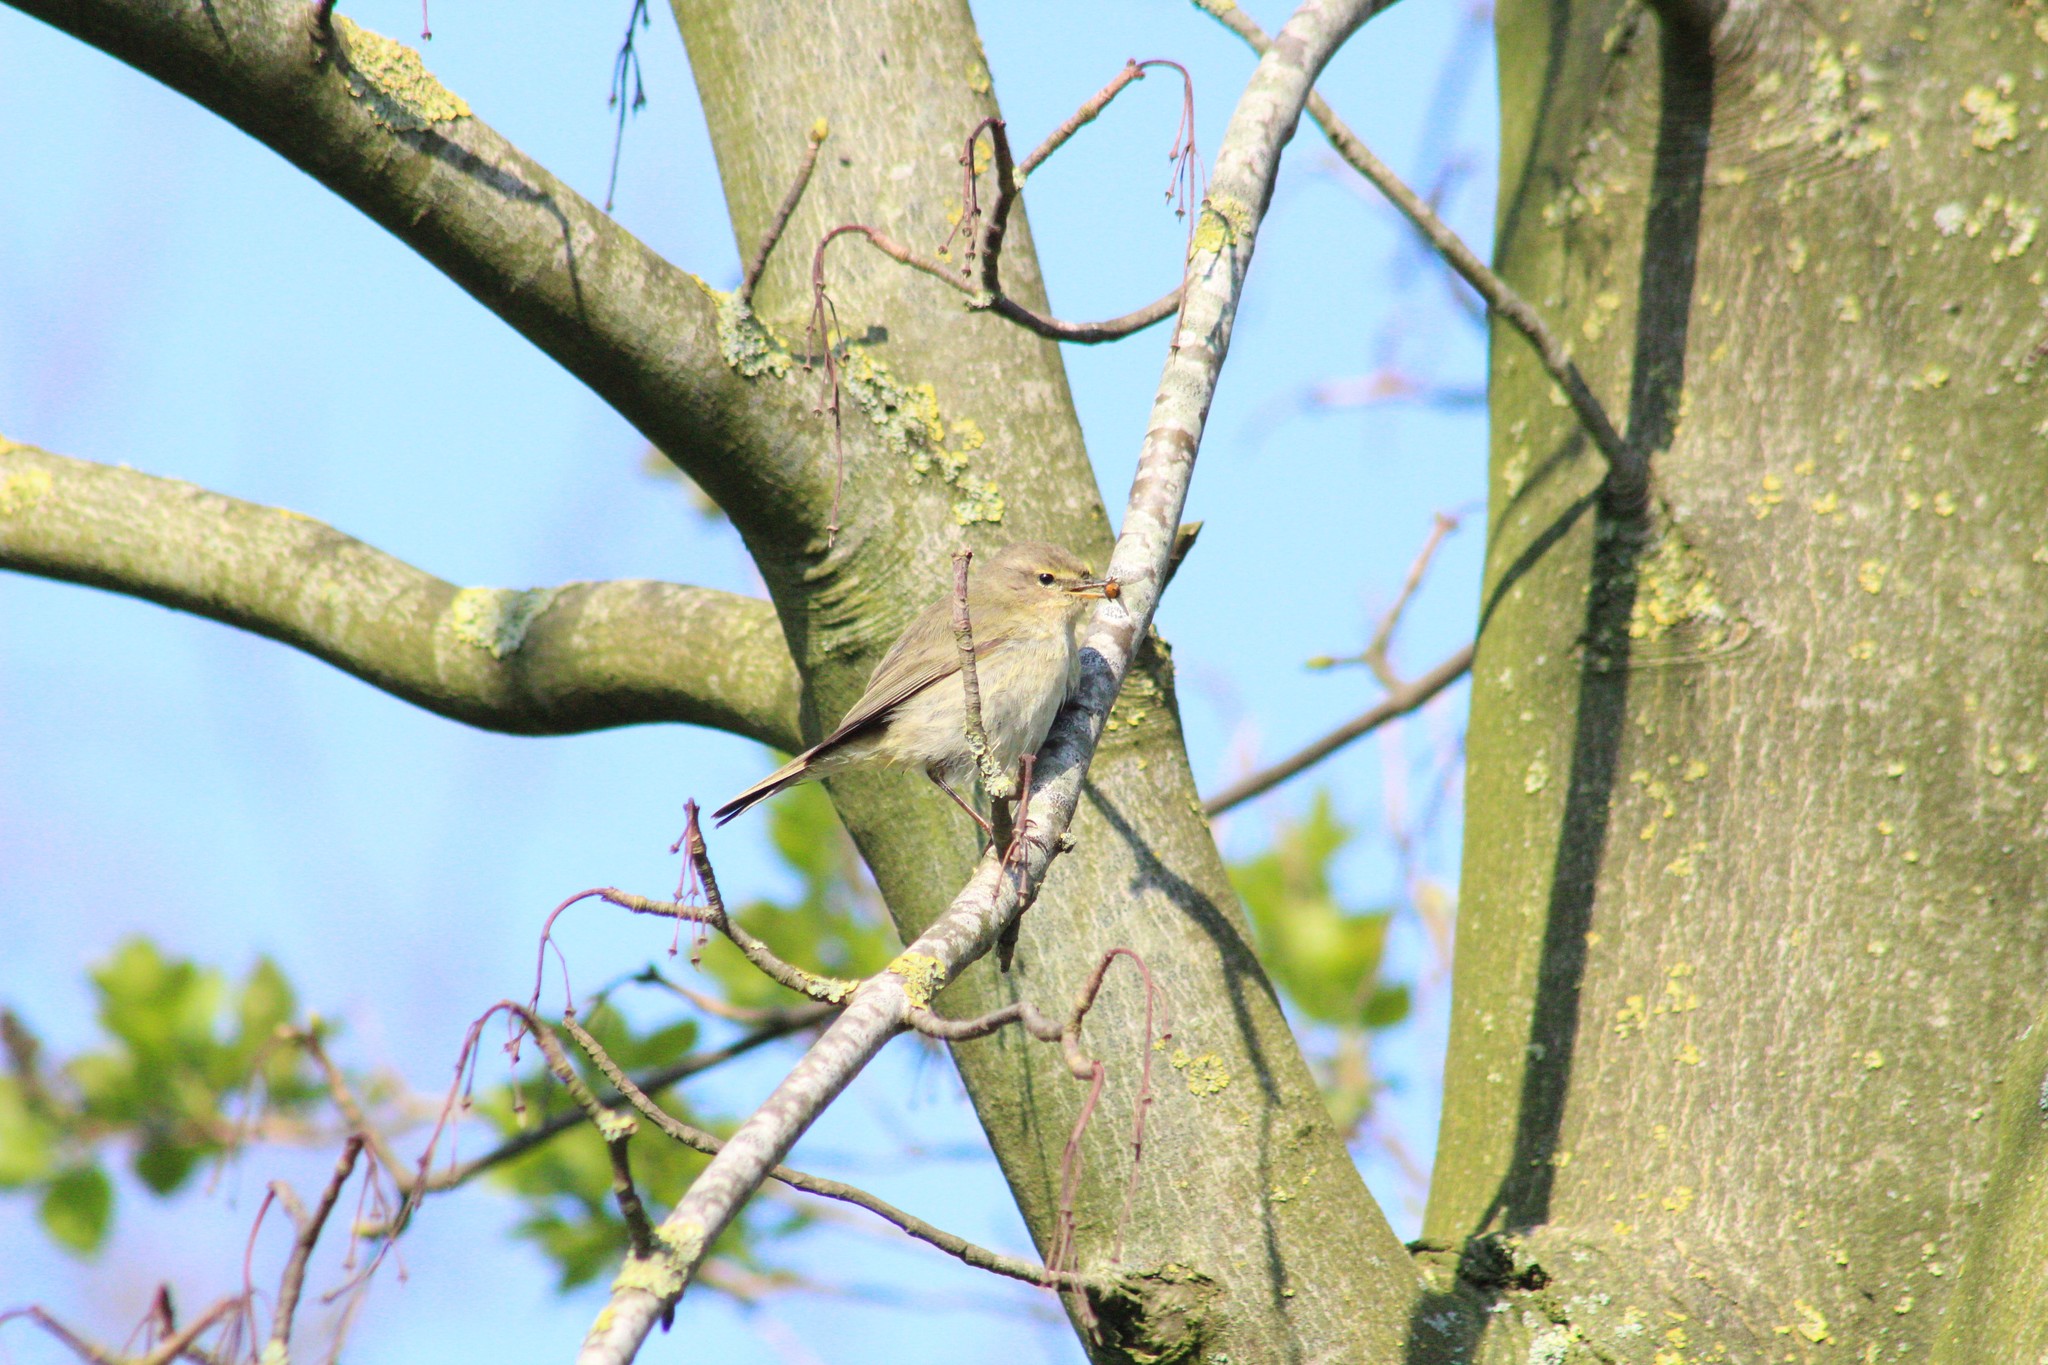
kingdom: Animalia
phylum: Chordata
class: Aves
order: Passeriformes
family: Phylloscopidae
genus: Phylloscopus
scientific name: Phylloscopus trochilus
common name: Willow warbler
